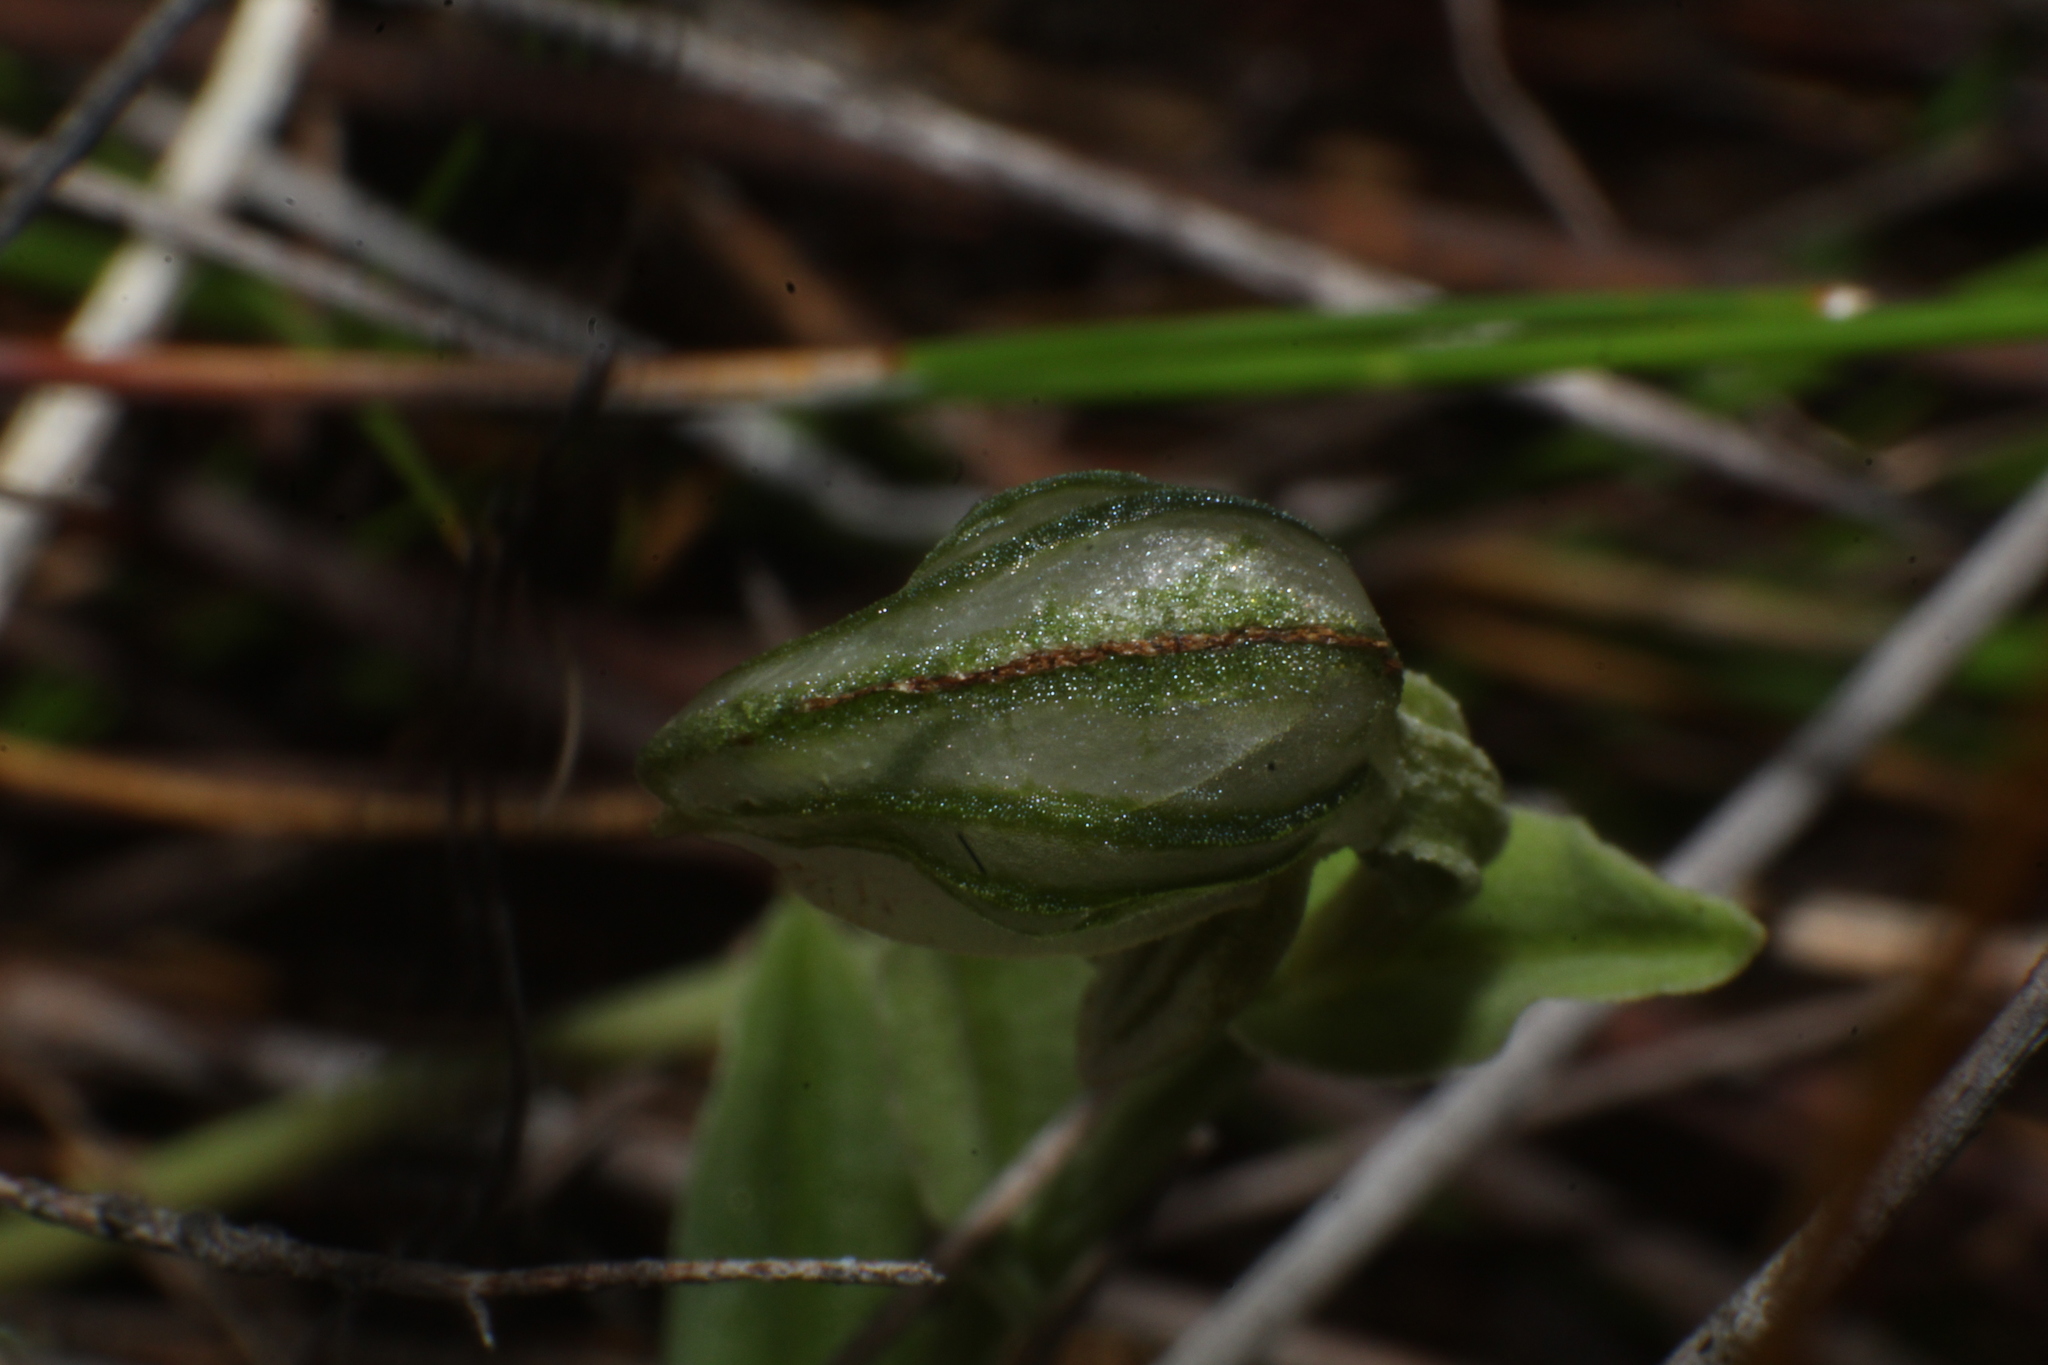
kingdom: Plantae
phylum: Tracheophyta
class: Liliopsida
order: Asparagales
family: Orchidaceae
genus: Pterostylis
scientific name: Pterostylis vittata
